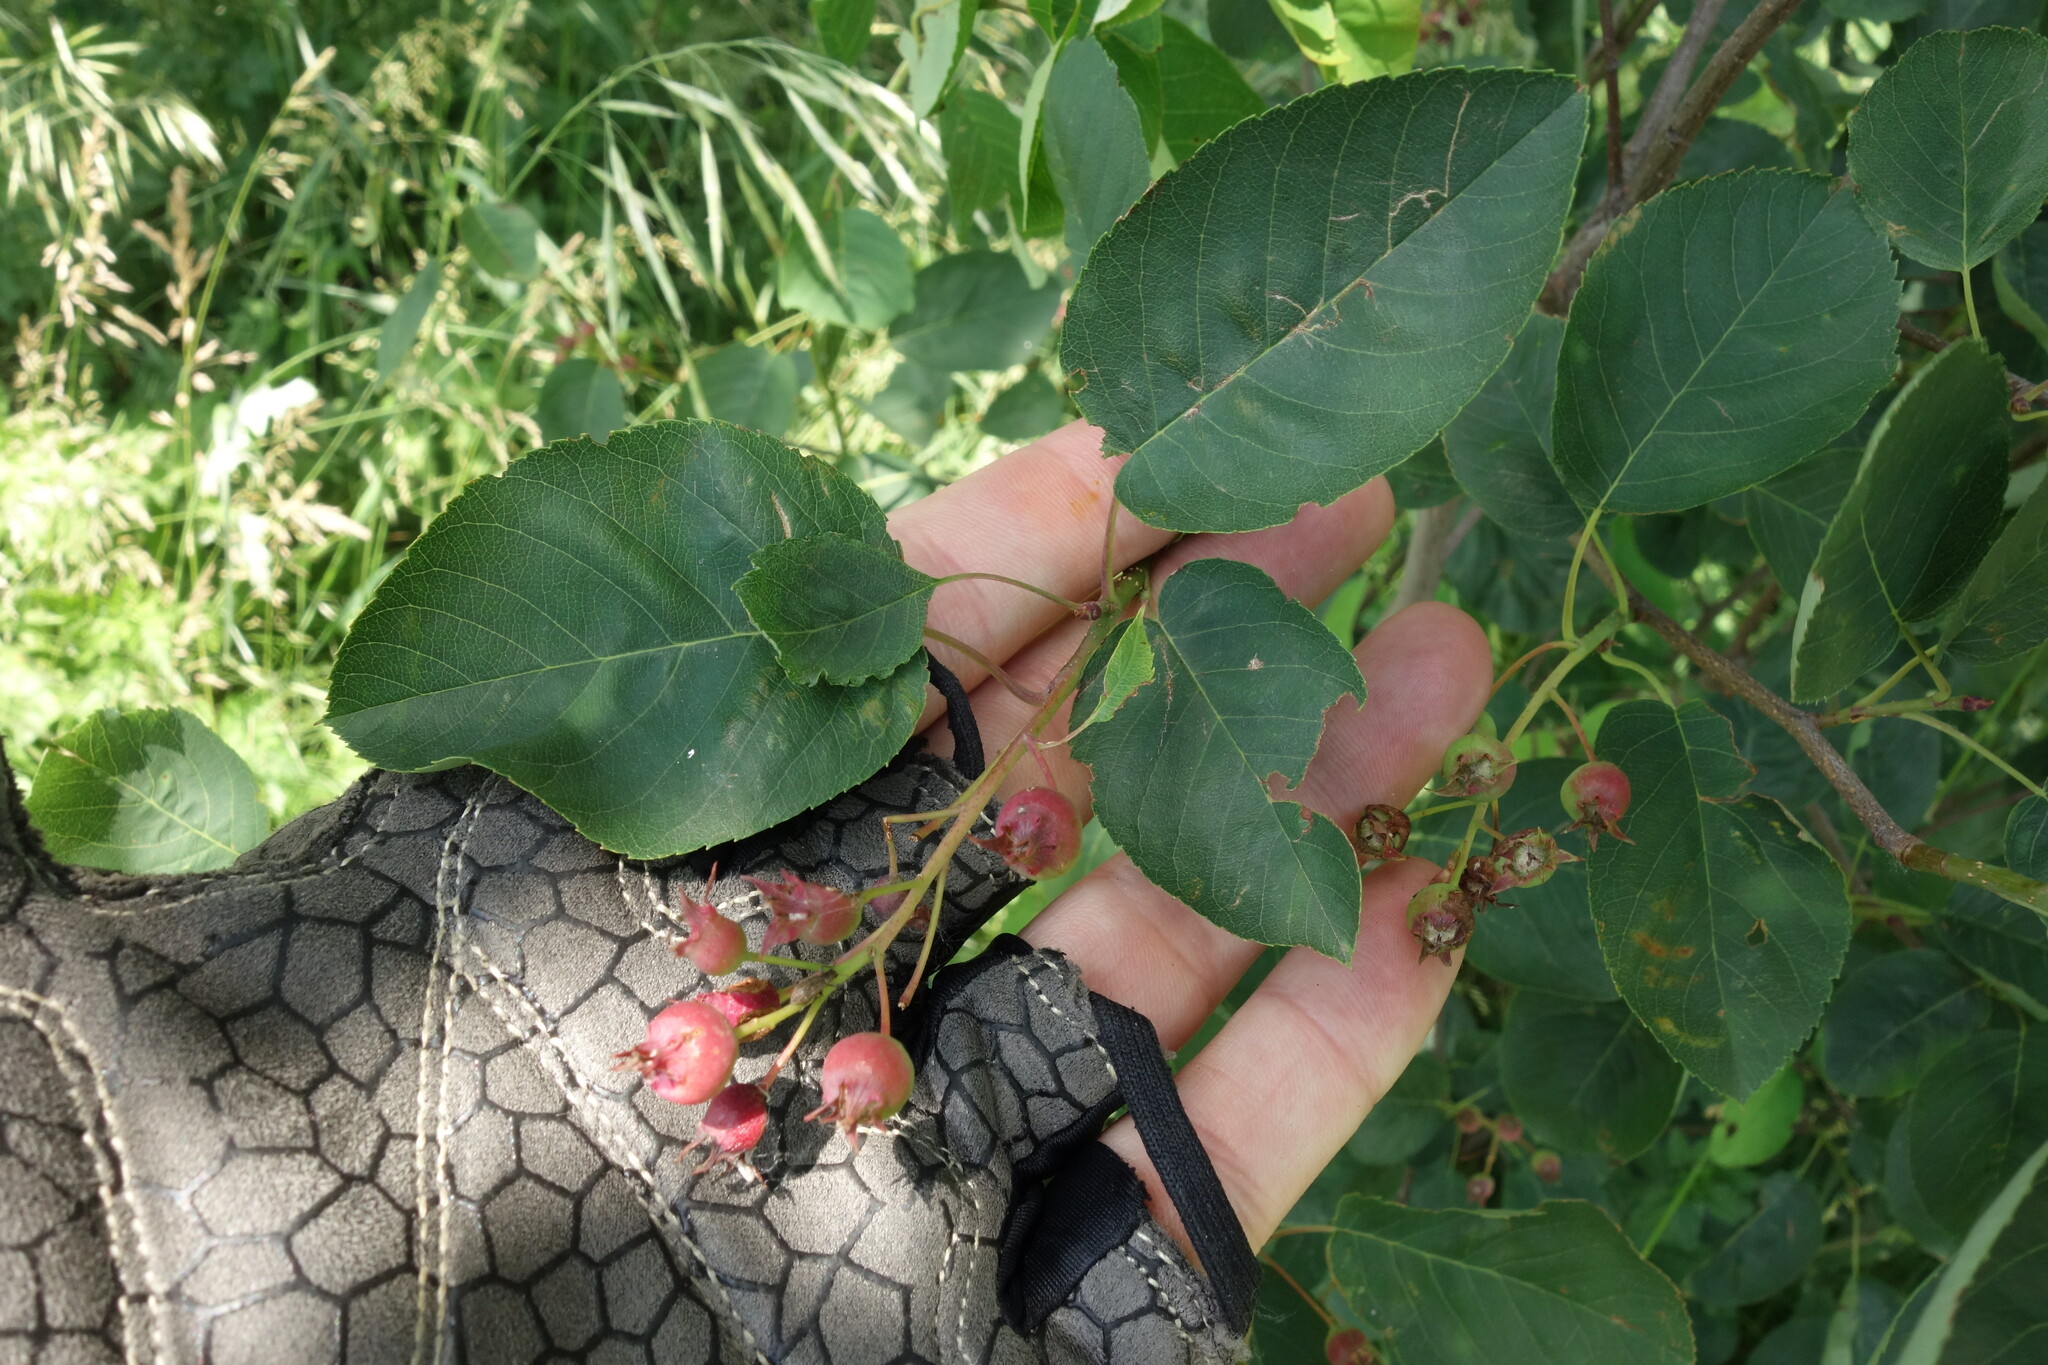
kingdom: Plantae
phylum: Tracheophyta
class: Magnoliopsida
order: Rosales
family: Rosaceae
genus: Amelanchier
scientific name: Amelanchier
